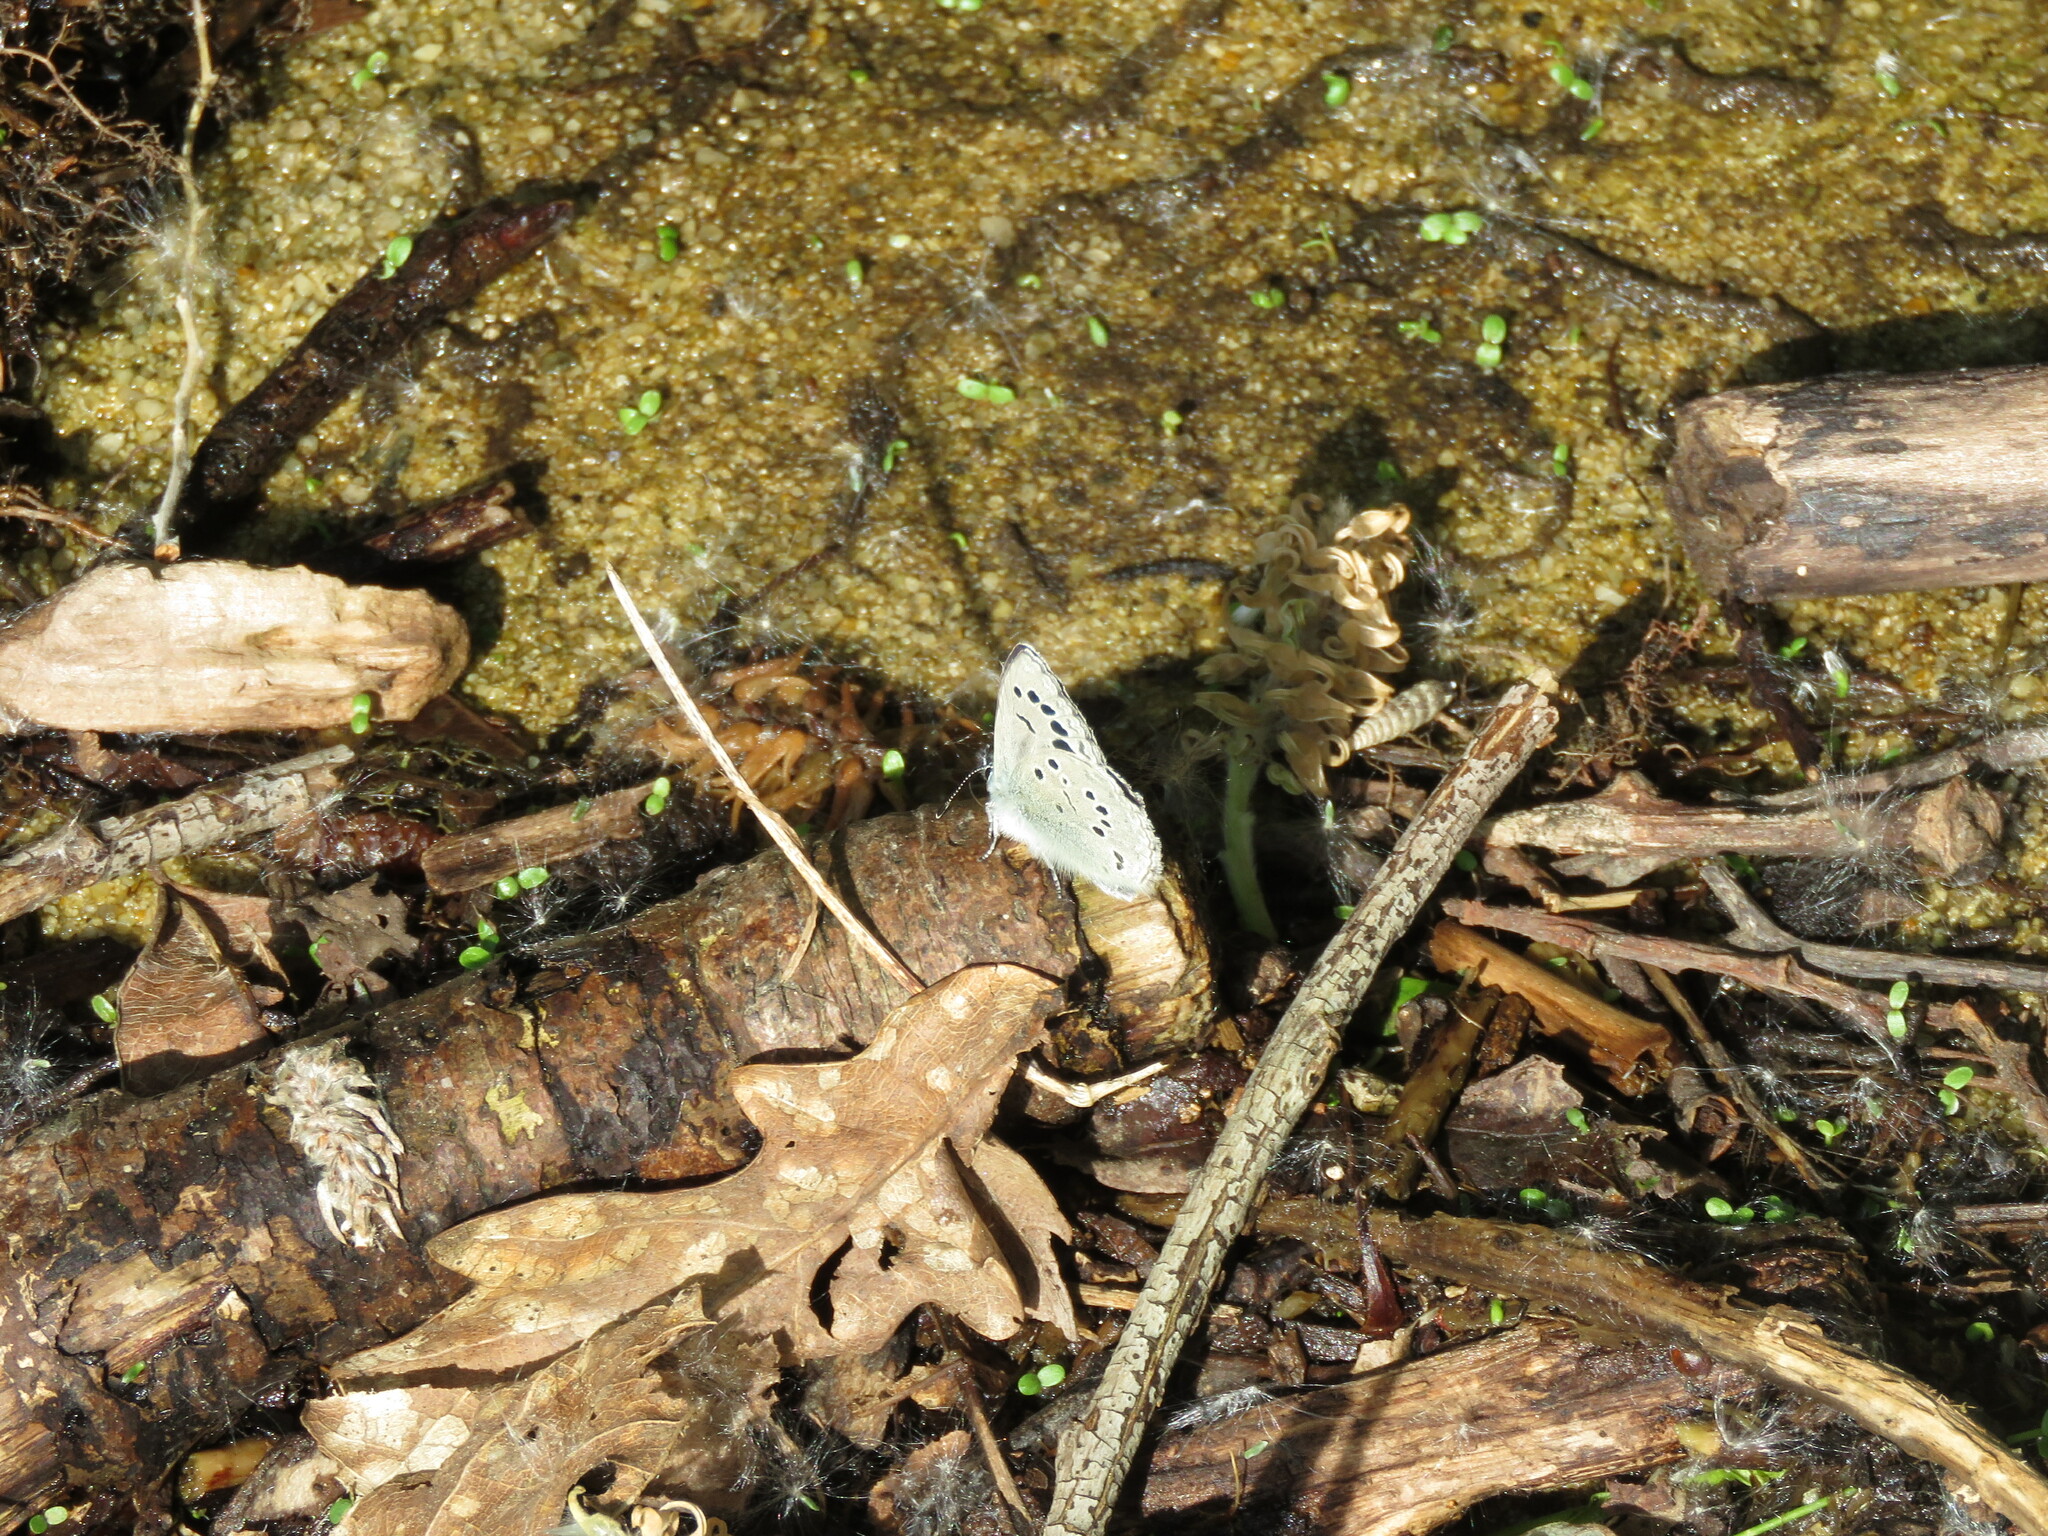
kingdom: Animalia
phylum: Arthropoda
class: Insecta
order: Lepidoptera
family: Lycaenidae
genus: Glaucopsyche
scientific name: Glaucopsyche melanops
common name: Black-eyed blue
